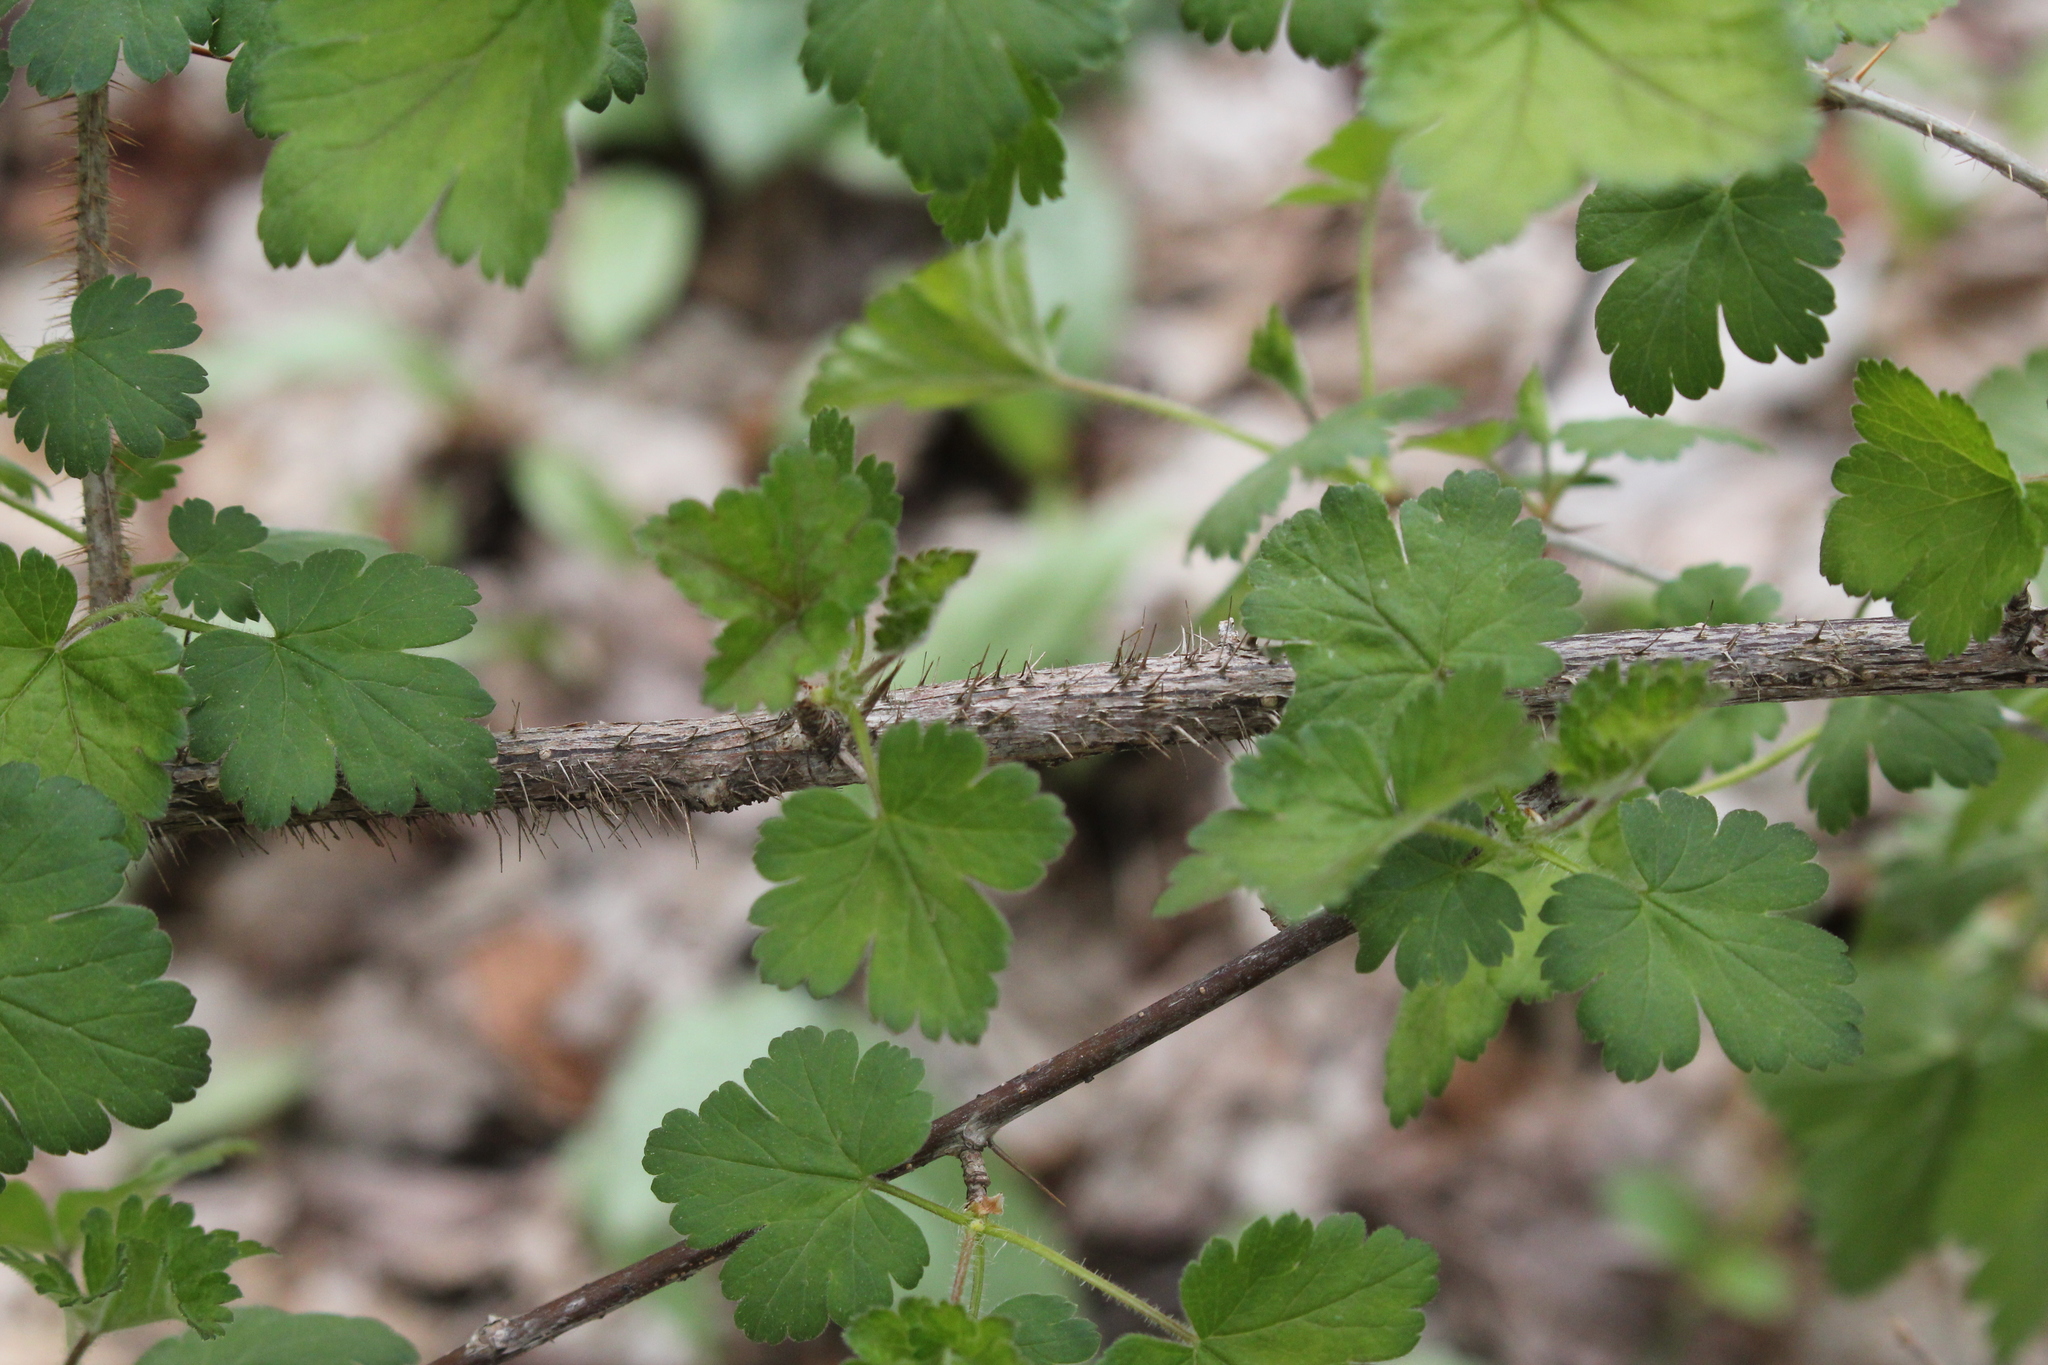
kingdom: Plantae
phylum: Tracheophyta
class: Magnoliopsida
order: Saxifragales
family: Grossulariaceae
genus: Ribes
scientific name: Ribes cynosbati
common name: American gooseberry
